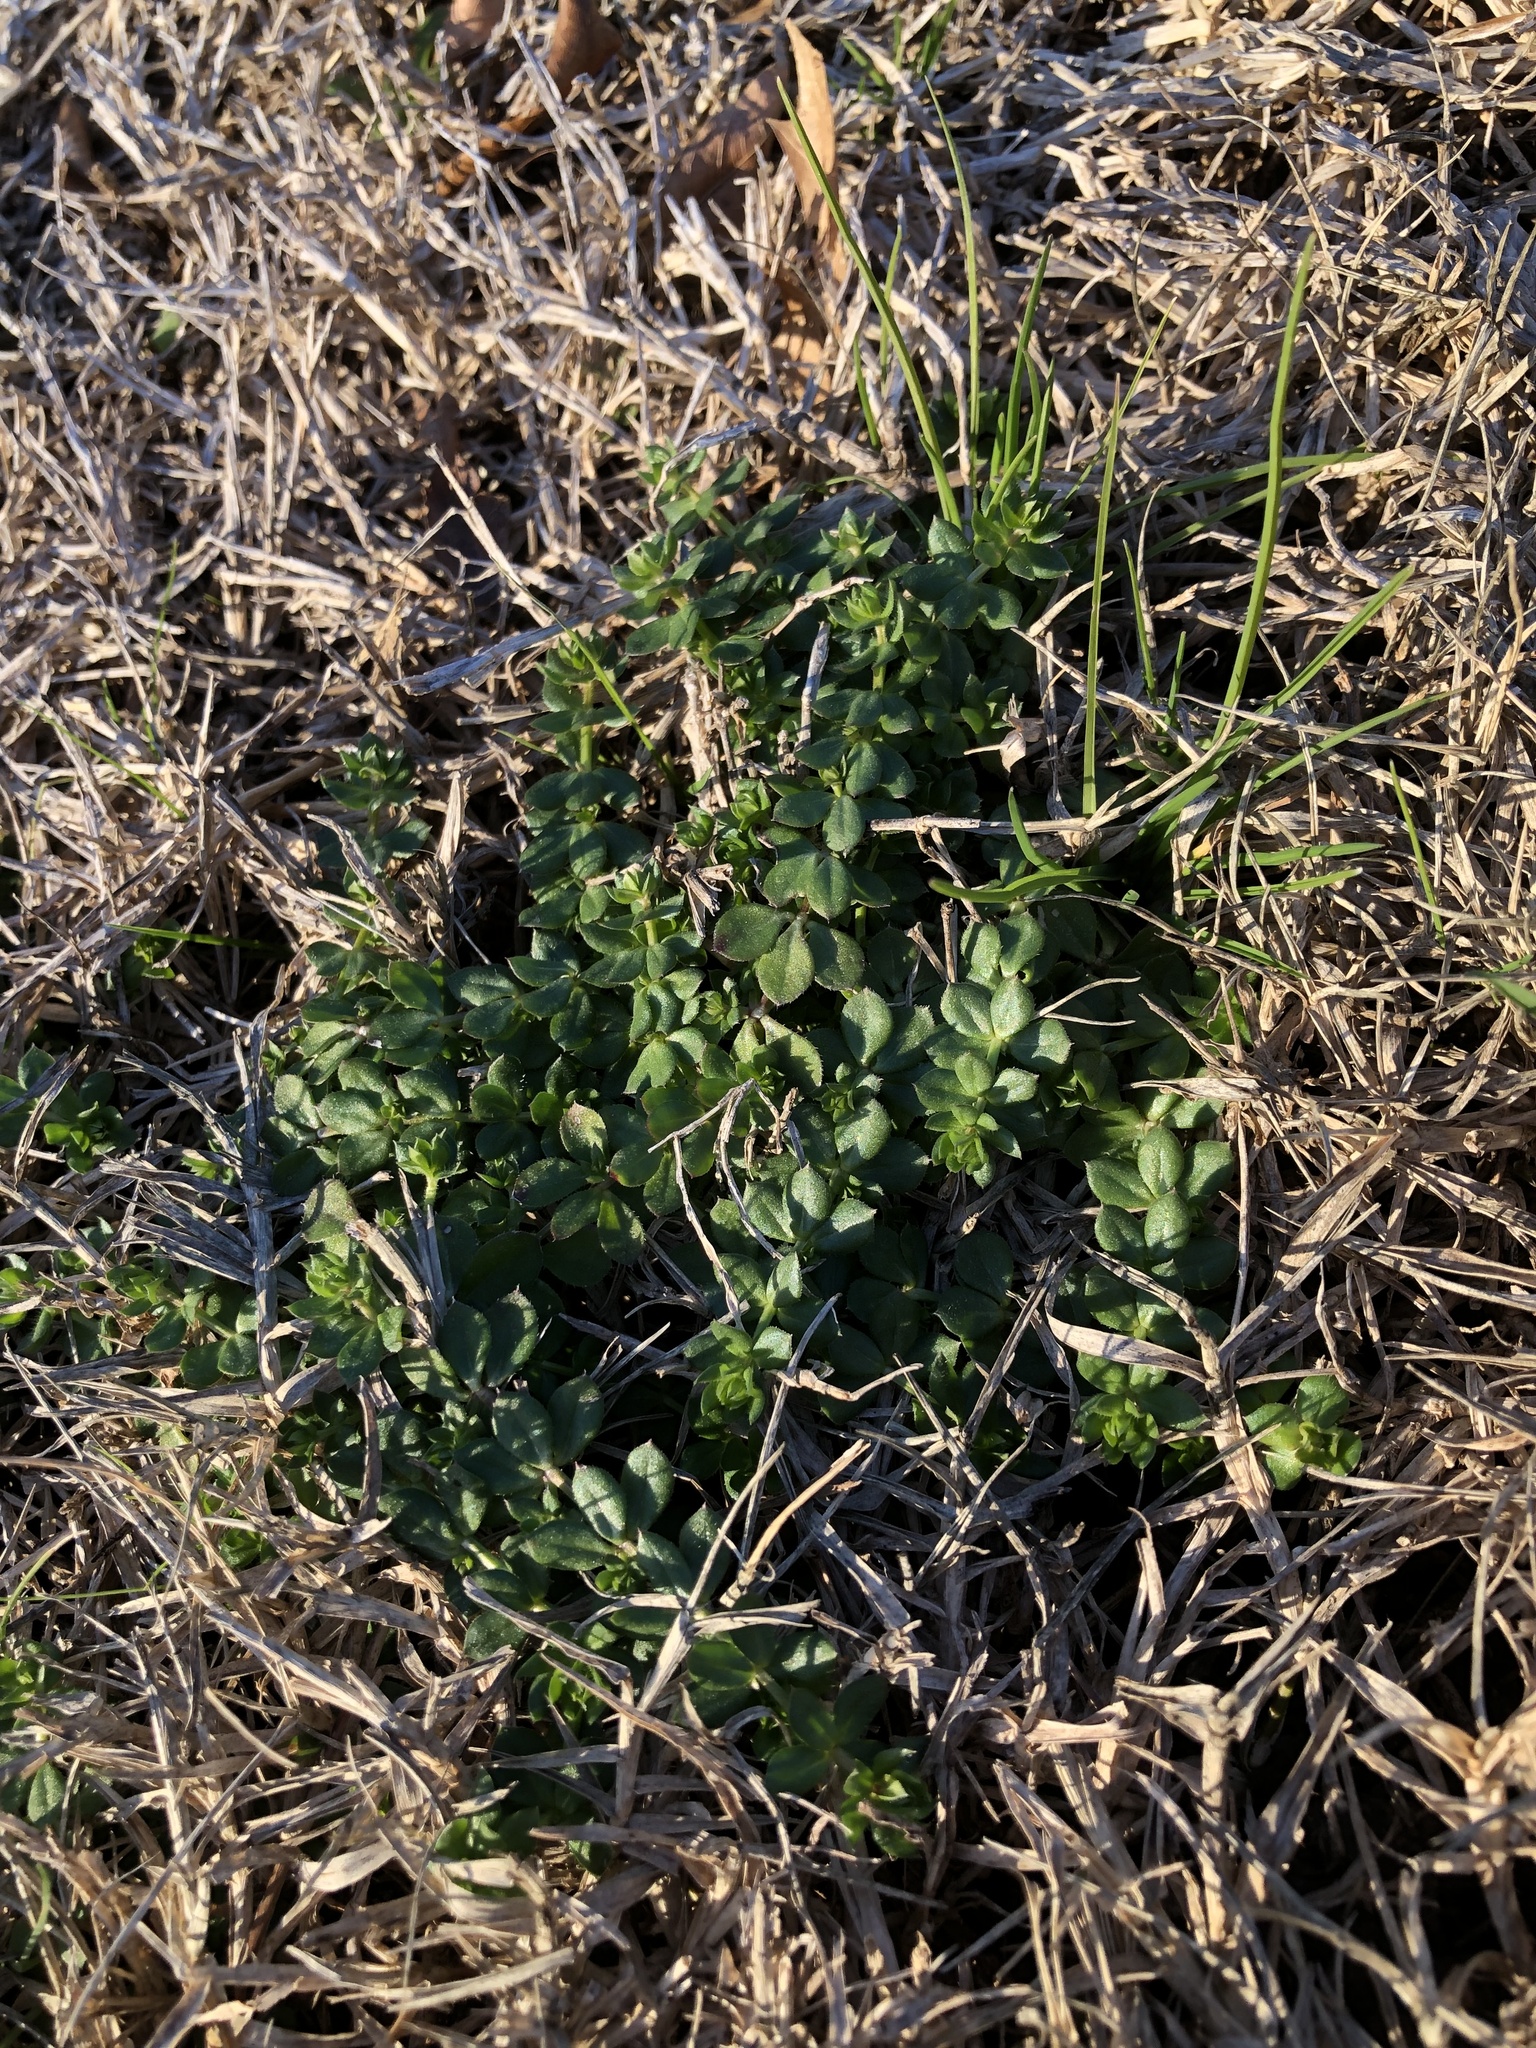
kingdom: Plantae
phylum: Tracheophyta
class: Magnoliopsida
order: Gentianales
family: Rubiaceae
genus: Sherardia
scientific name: Sherardia arvensis
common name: Field madder
